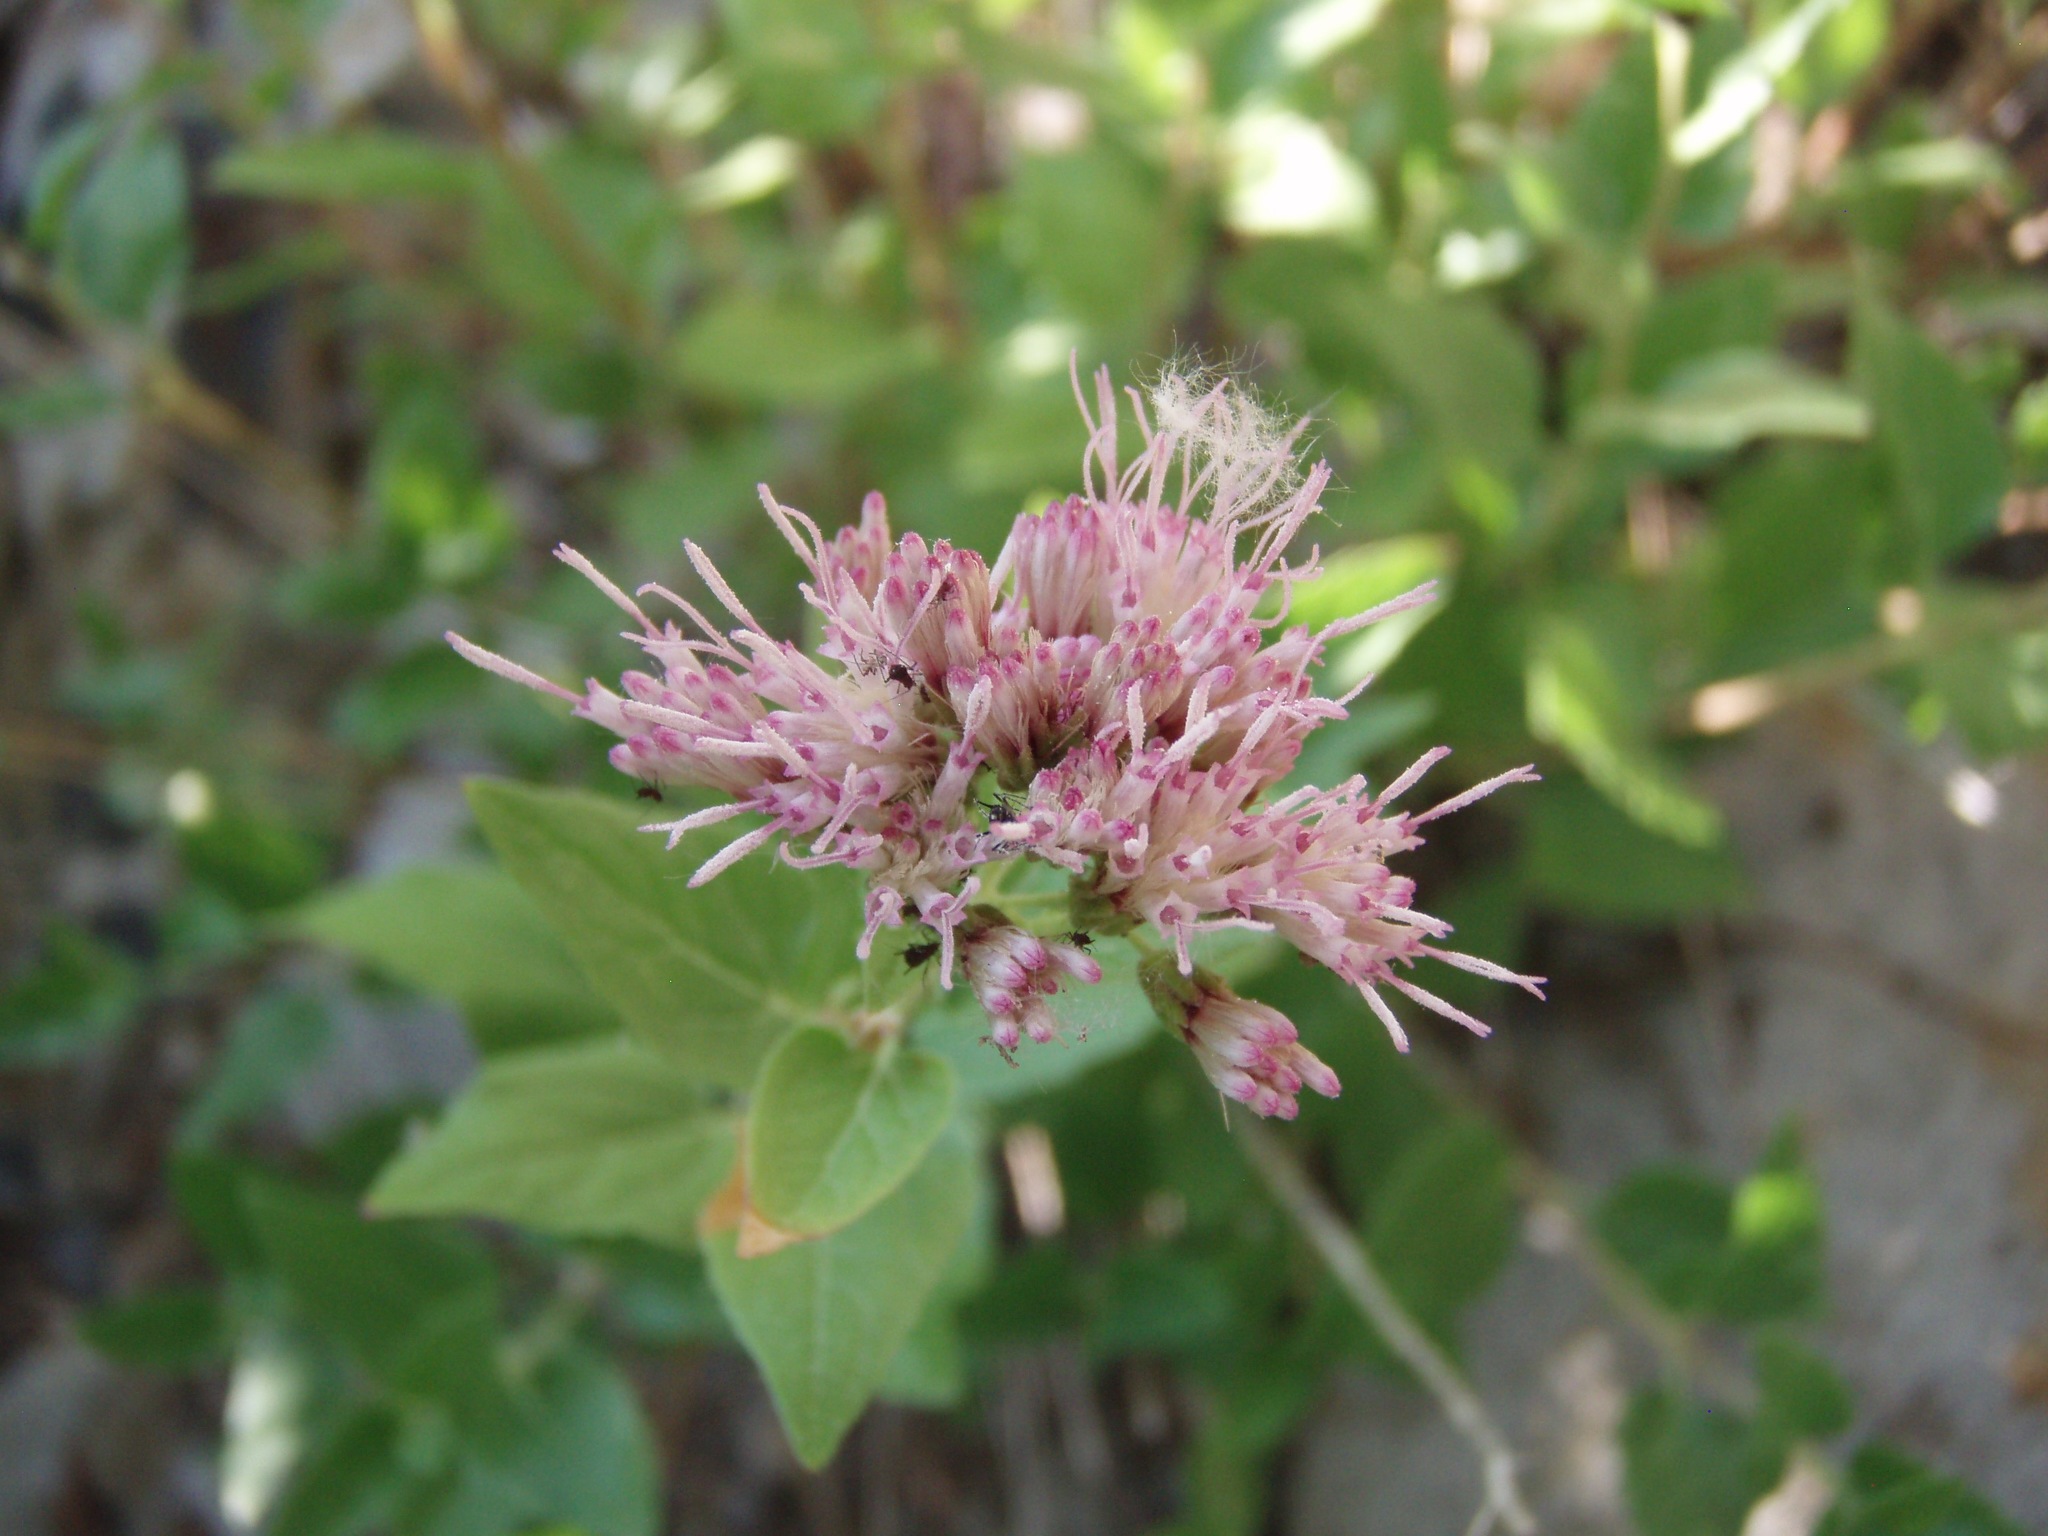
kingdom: Plantae
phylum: Tracheophyta
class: Magnoliopsida
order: Asterales
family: Asteraceae
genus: Ageratina
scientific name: Ageratina occidentalis
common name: Western snakeroot
